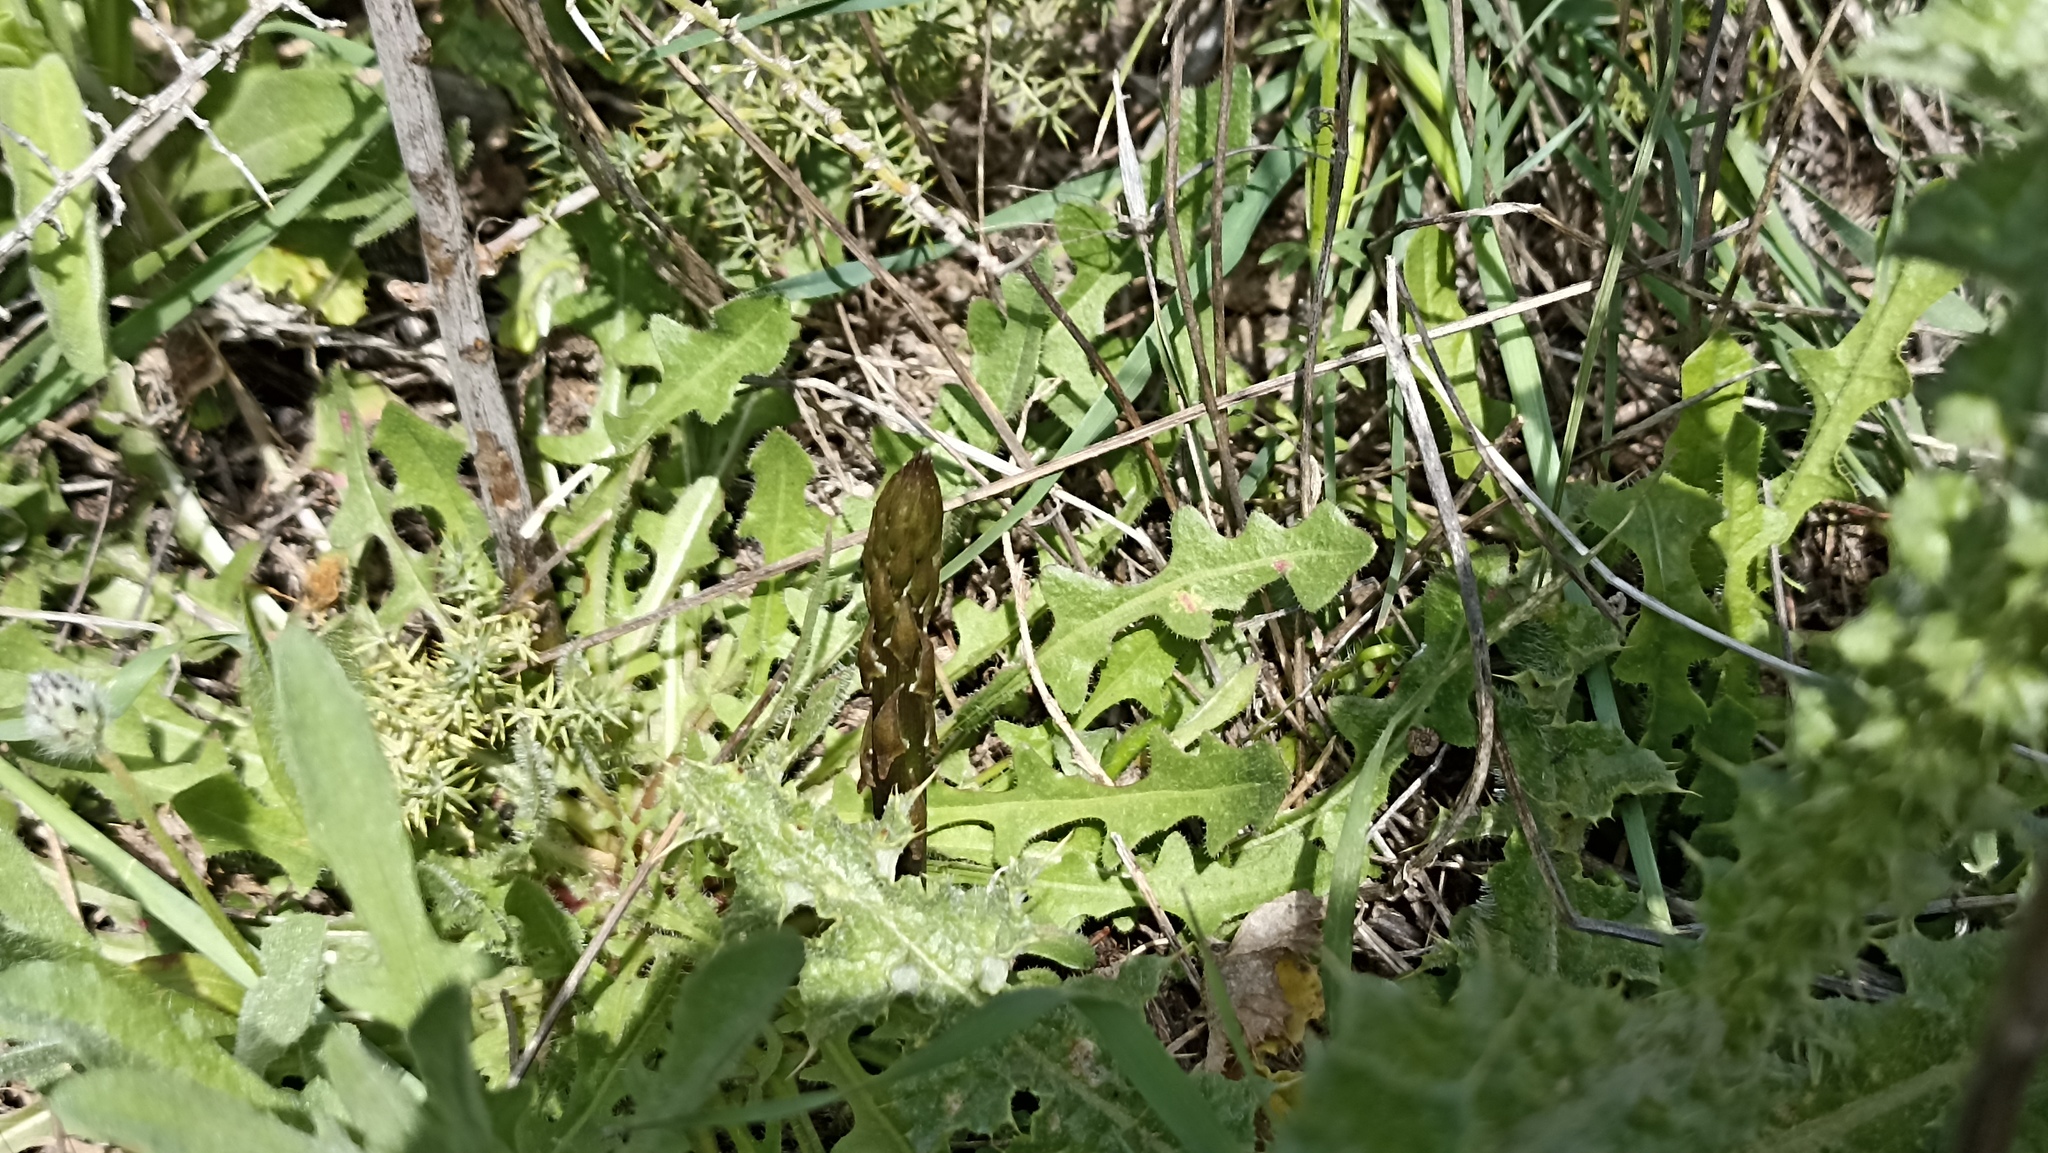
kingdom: Plantae
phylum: Tracheophyta
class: Liliopsida
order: Asparagales
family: Asparagaceae
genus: Asparagus
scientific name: Asparagus acutifolius
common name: Wild asparagus
